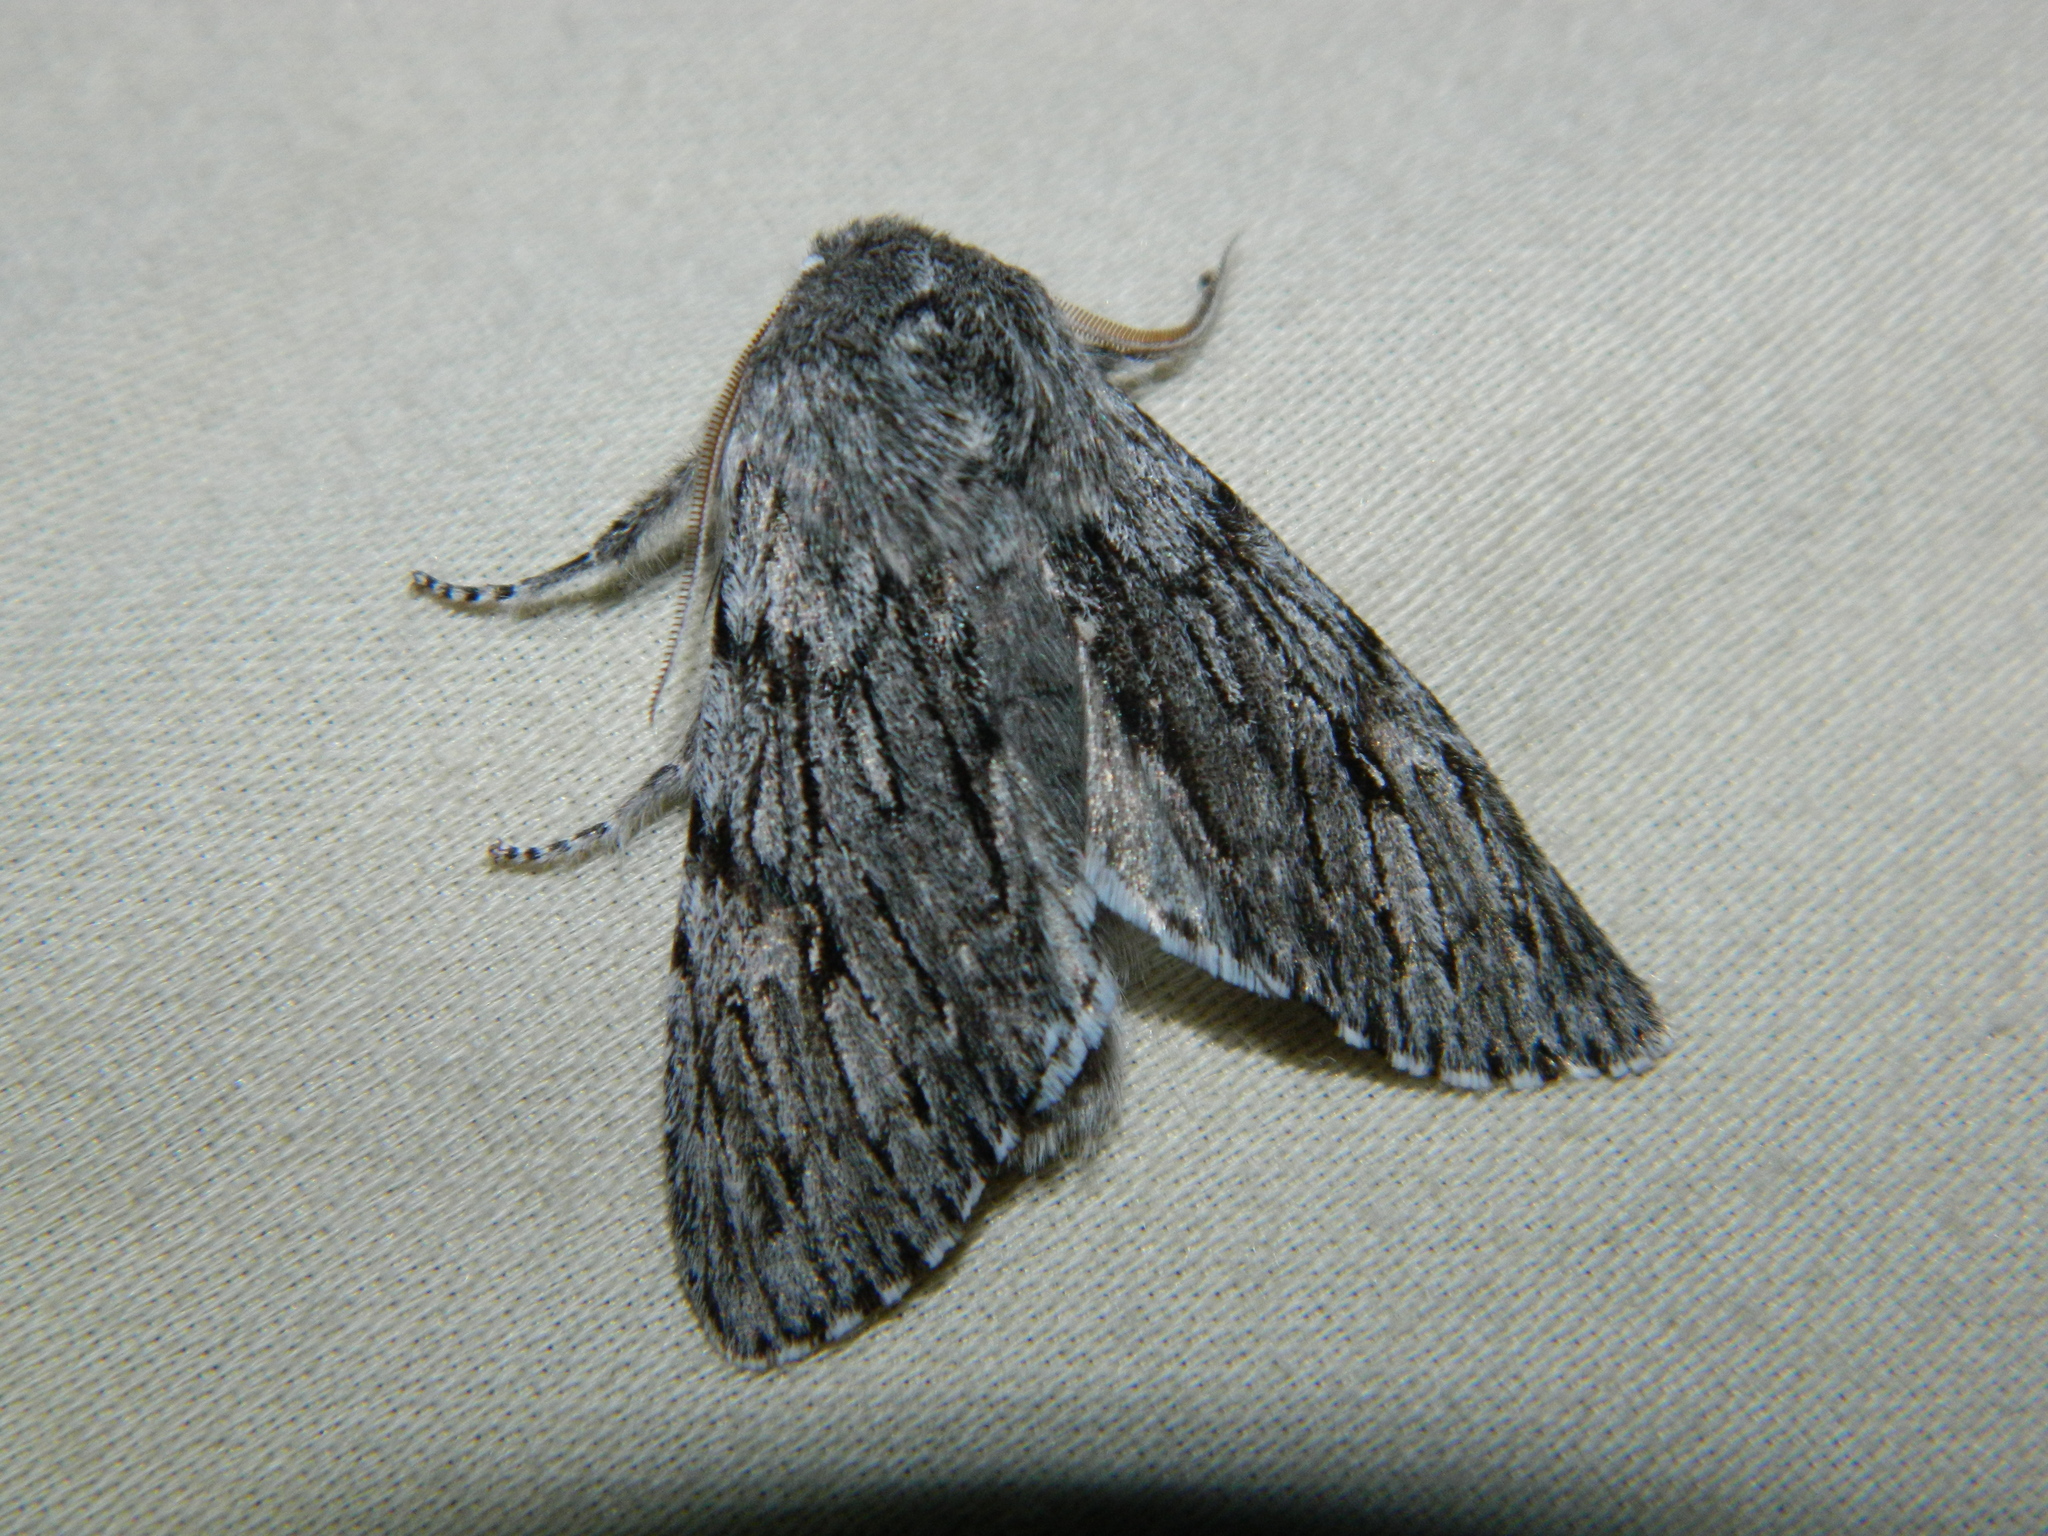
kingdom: Animalia
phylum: Arthropoda
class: Insecta
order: Lepidoptera
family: Noctuidae
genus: Brachionycha
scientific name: Brachionycha borealis
